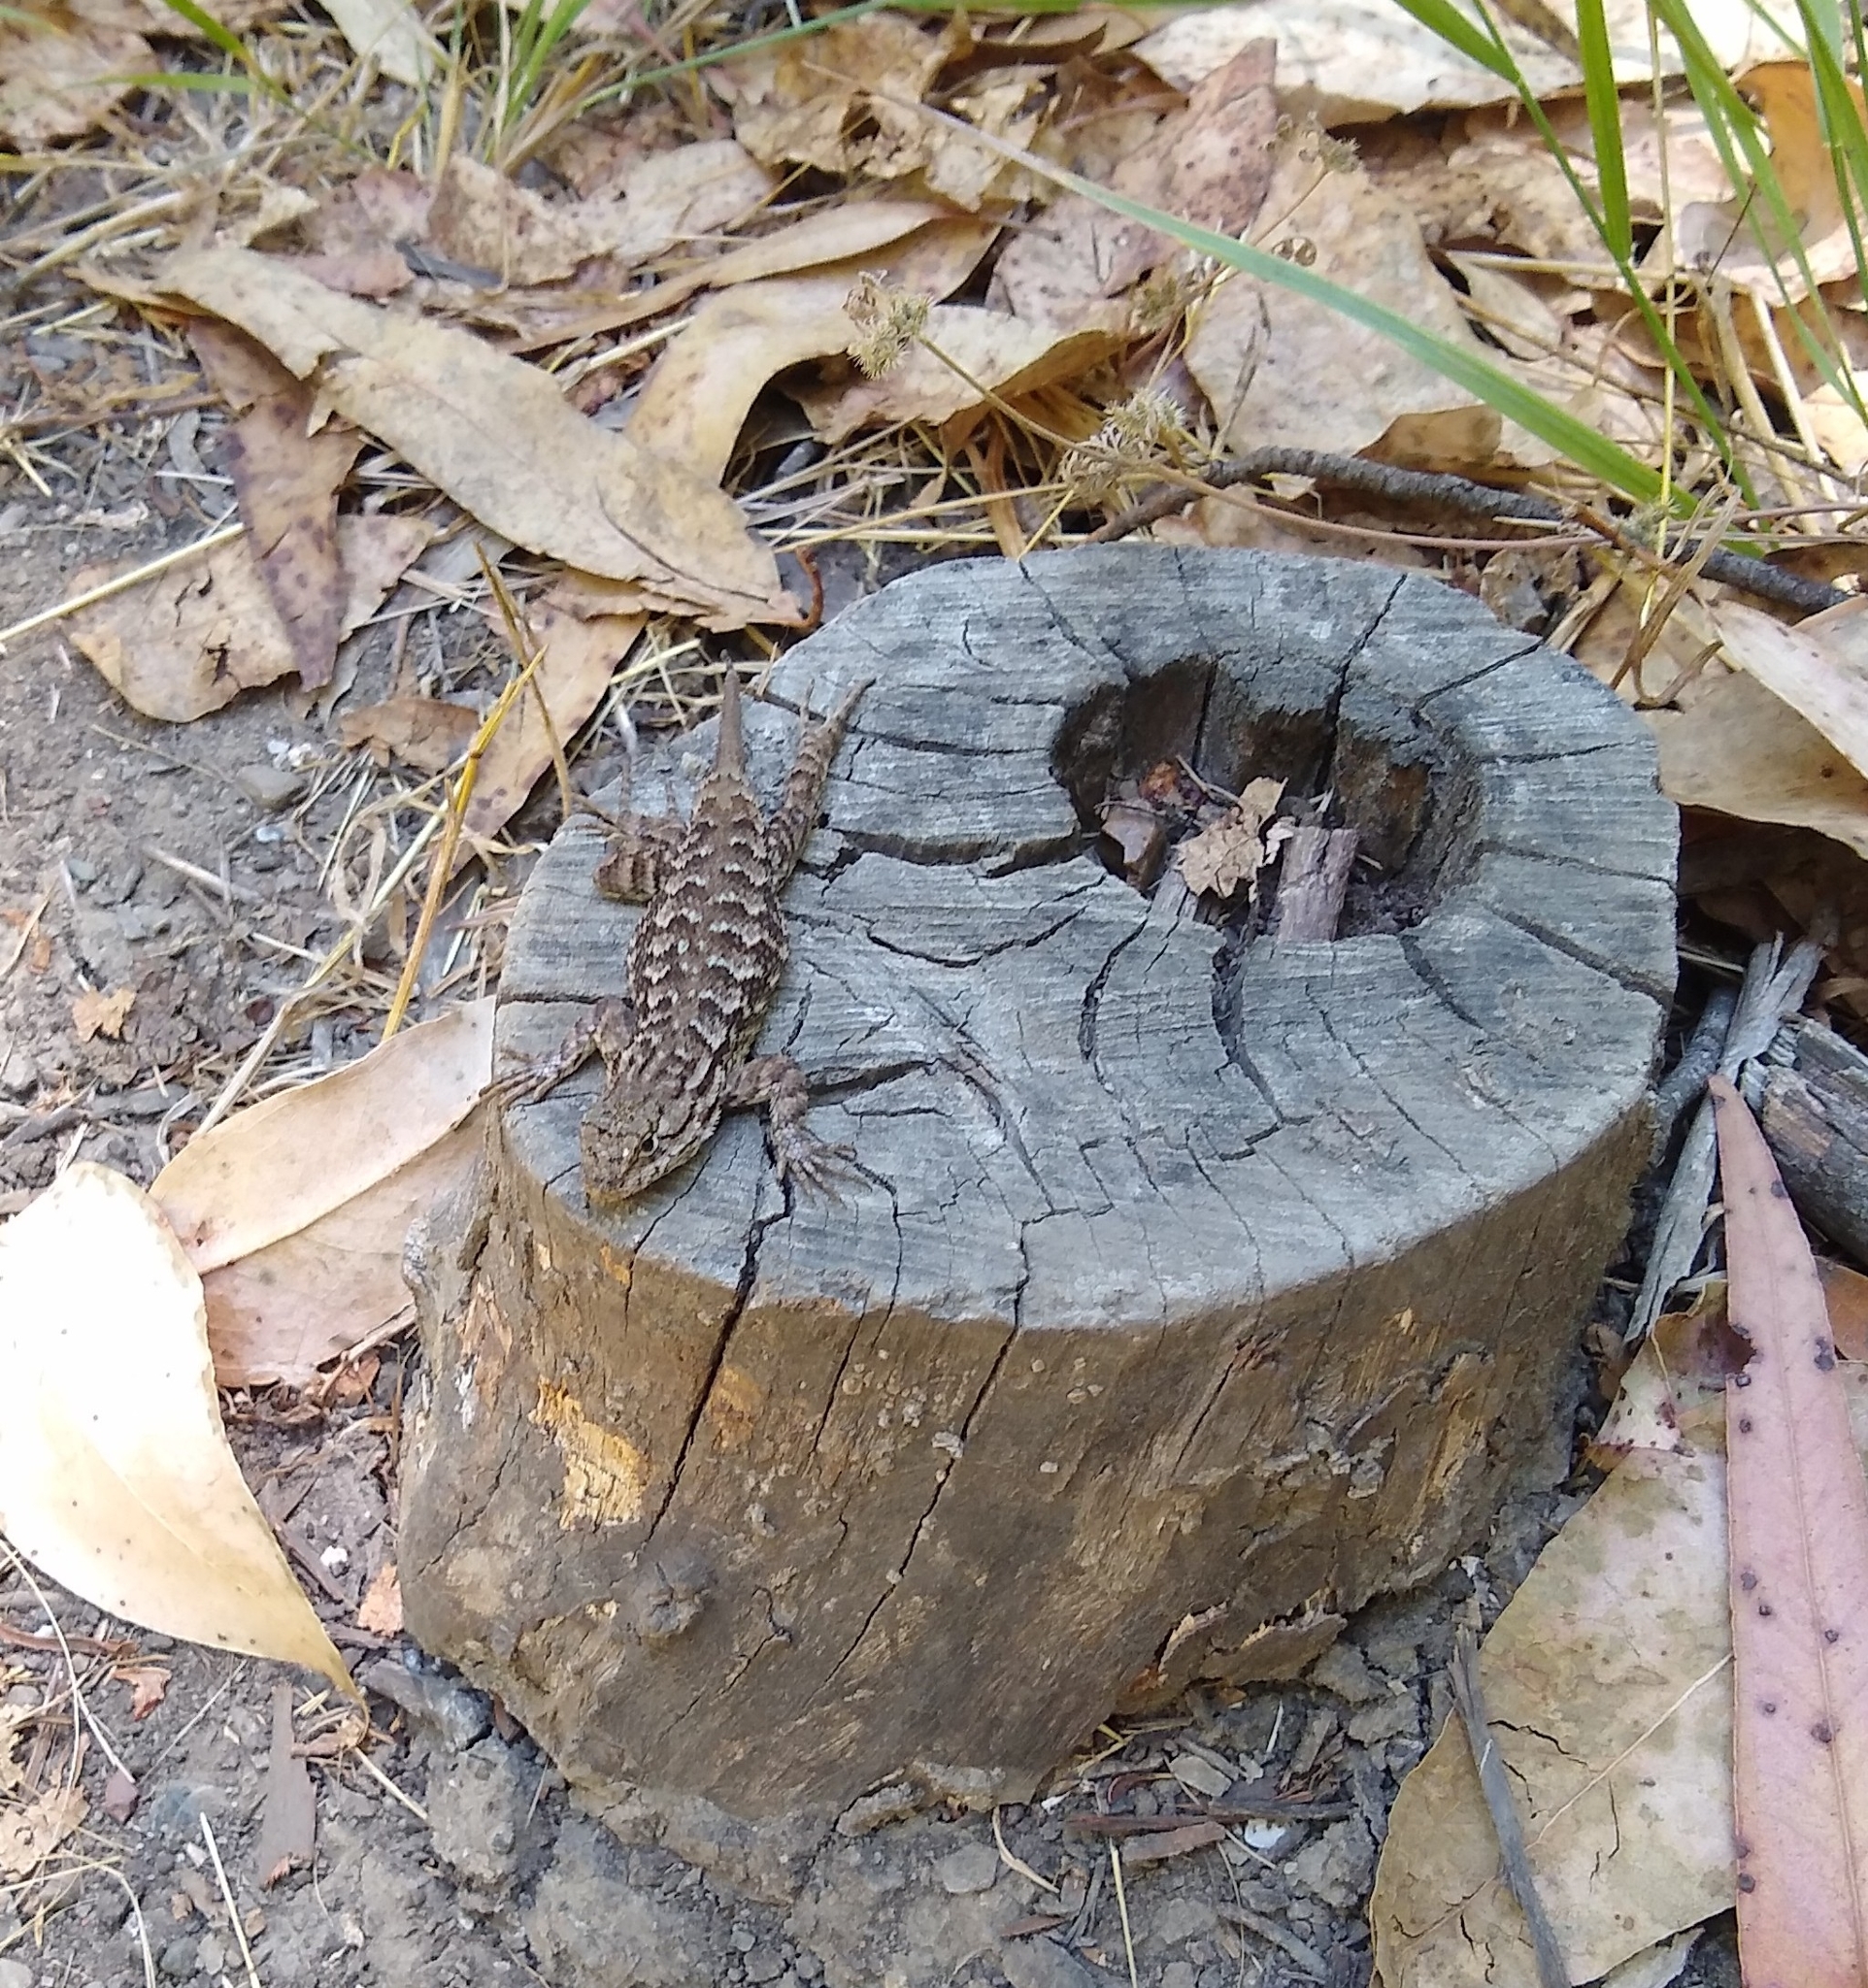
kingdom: Animalia
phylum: Chordata
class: Squamata
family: Phrynosomatidae
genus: Sceloporus
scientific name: Sceloporus occidentalis
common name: Western fence lizard
